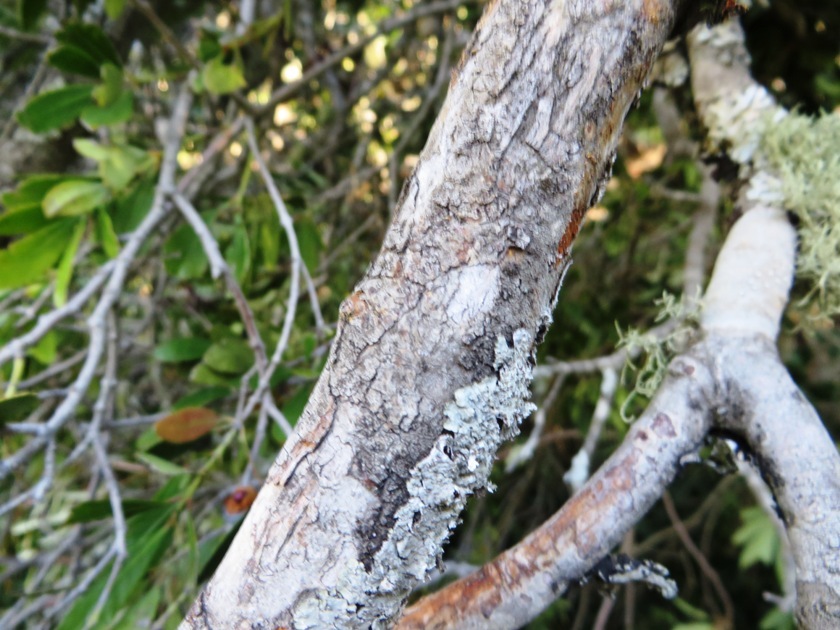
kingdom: Plantae
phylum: Tracheophyta
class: Magnoliopsida
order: Celastrales
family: Celastraceae
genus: Elaeodendron
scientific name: Elaeodendron schinoides
